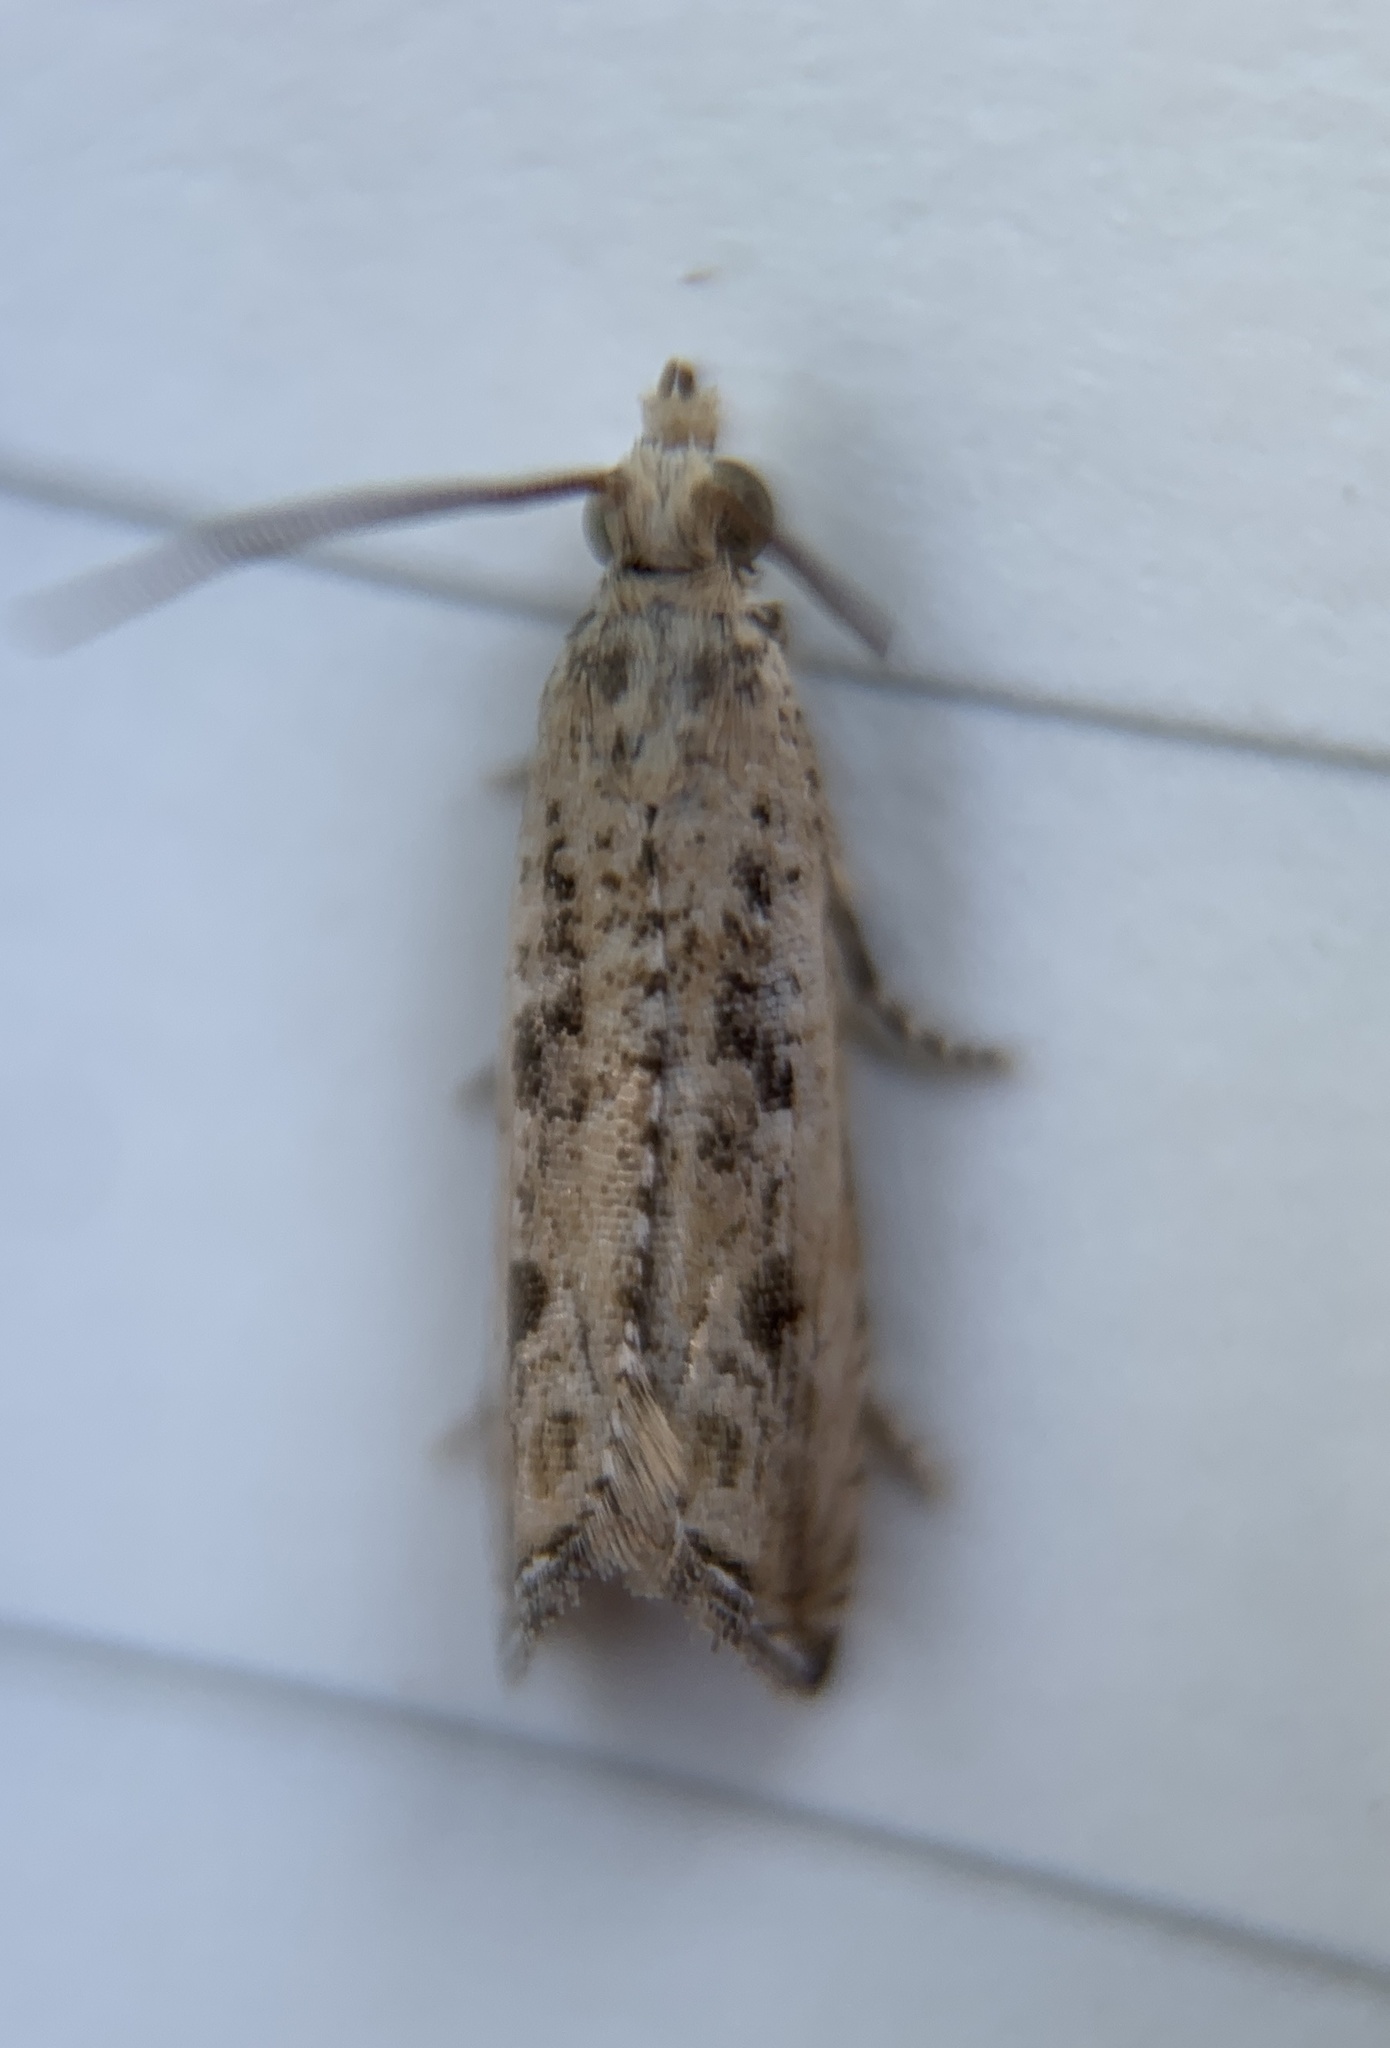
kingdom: Animalia
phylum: Arthropoda
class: Insecta
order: Lepidoptera
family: Tortricidae
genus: Bactra
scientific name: Bactra verutana
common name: Javelin moth
